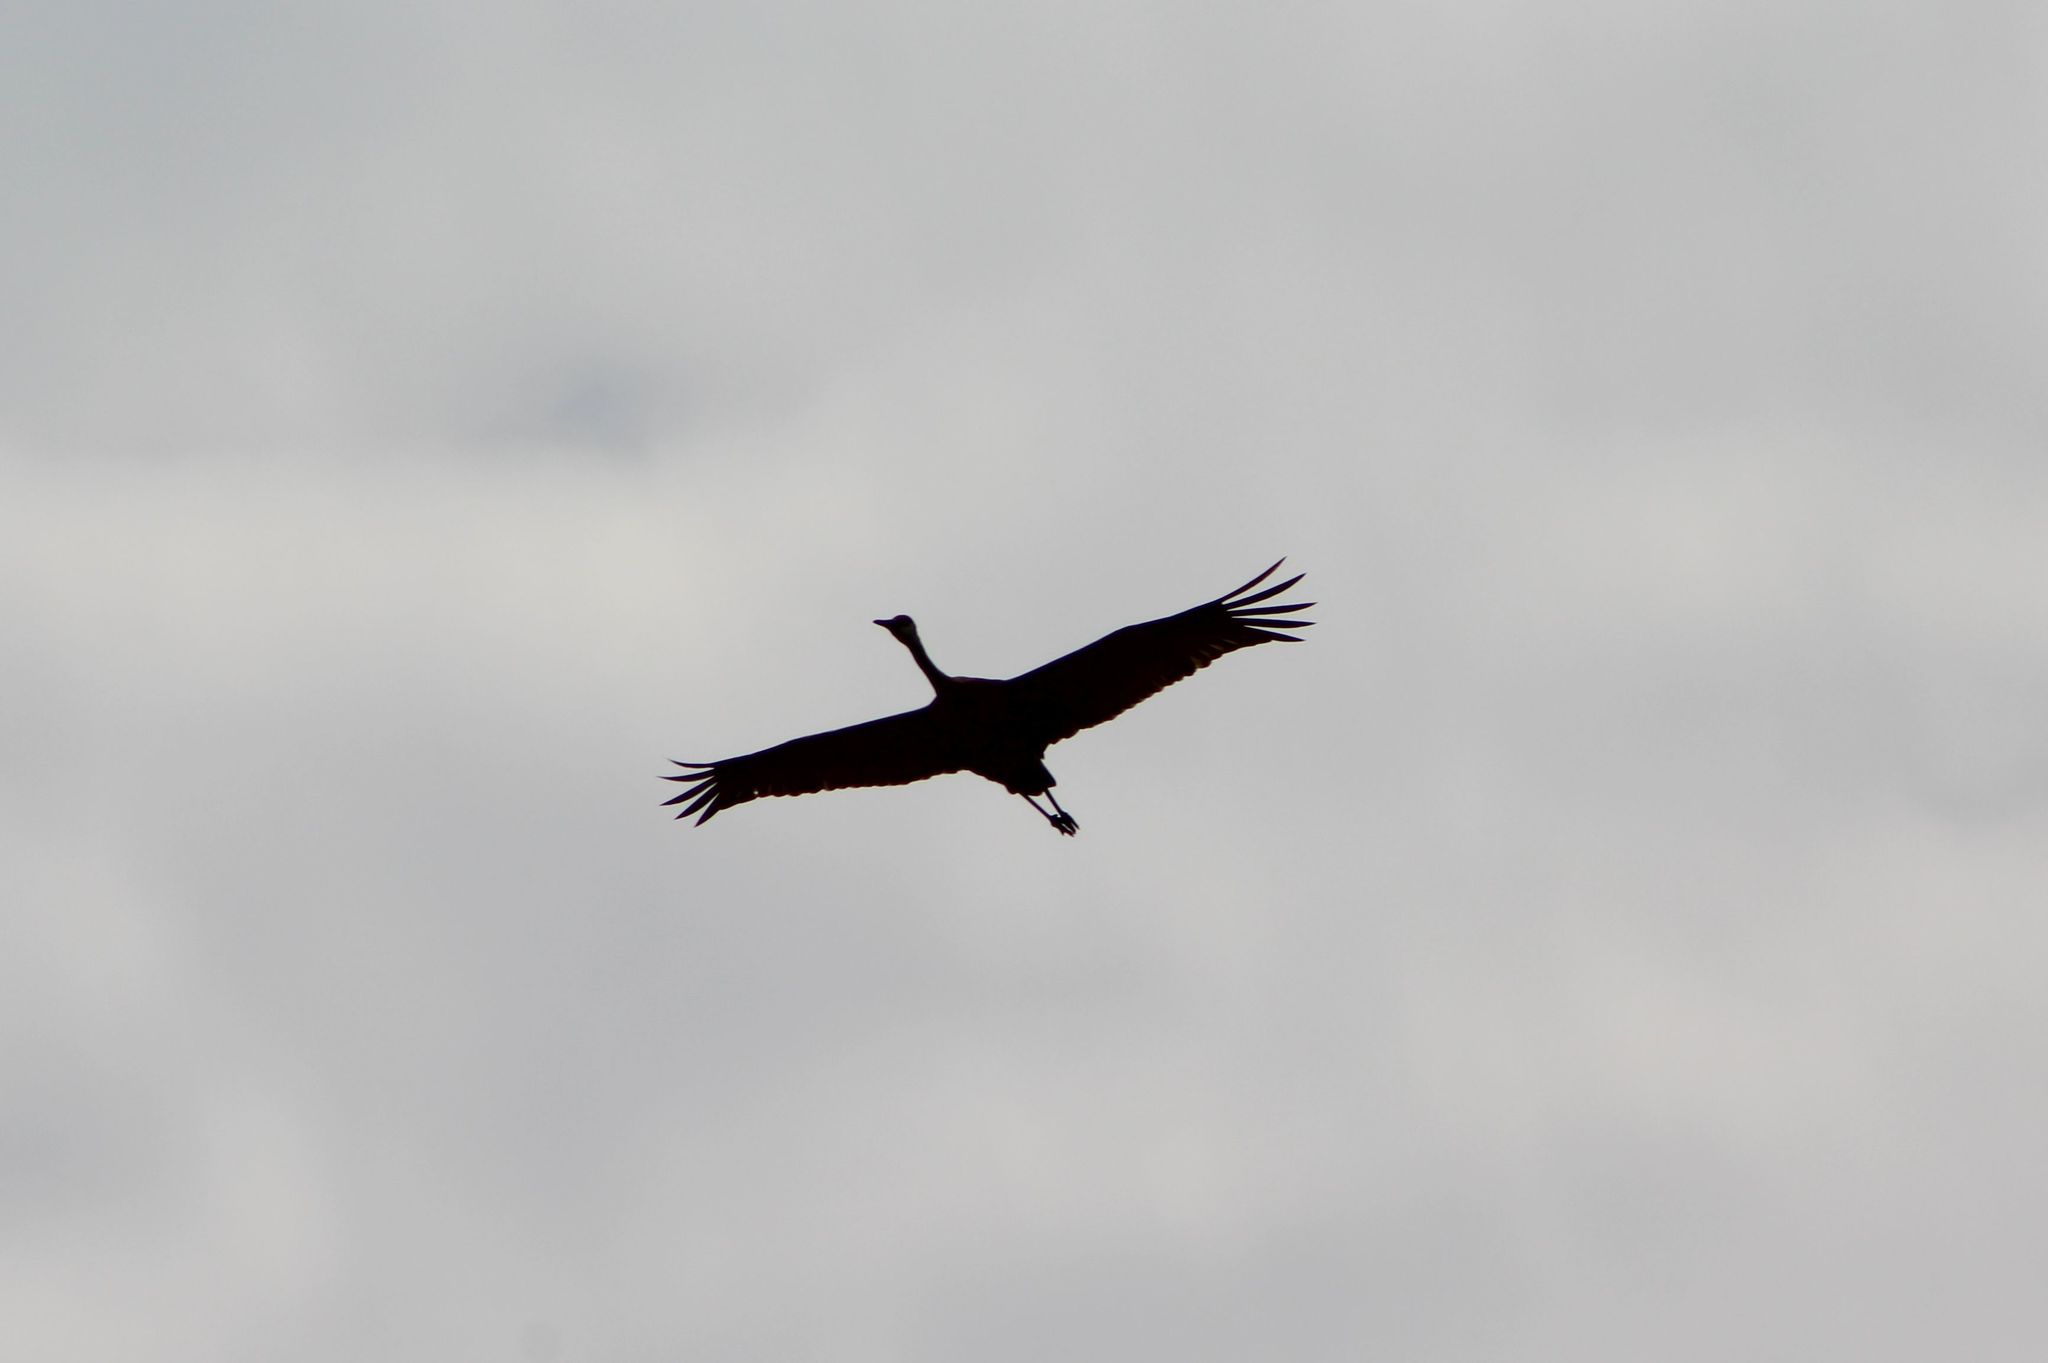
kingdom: Animalia
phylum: Chordata
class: Aves
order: Gruiformes
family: Gruidae
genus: Grus
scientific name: Grus canadensis
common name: Sandhill crane
